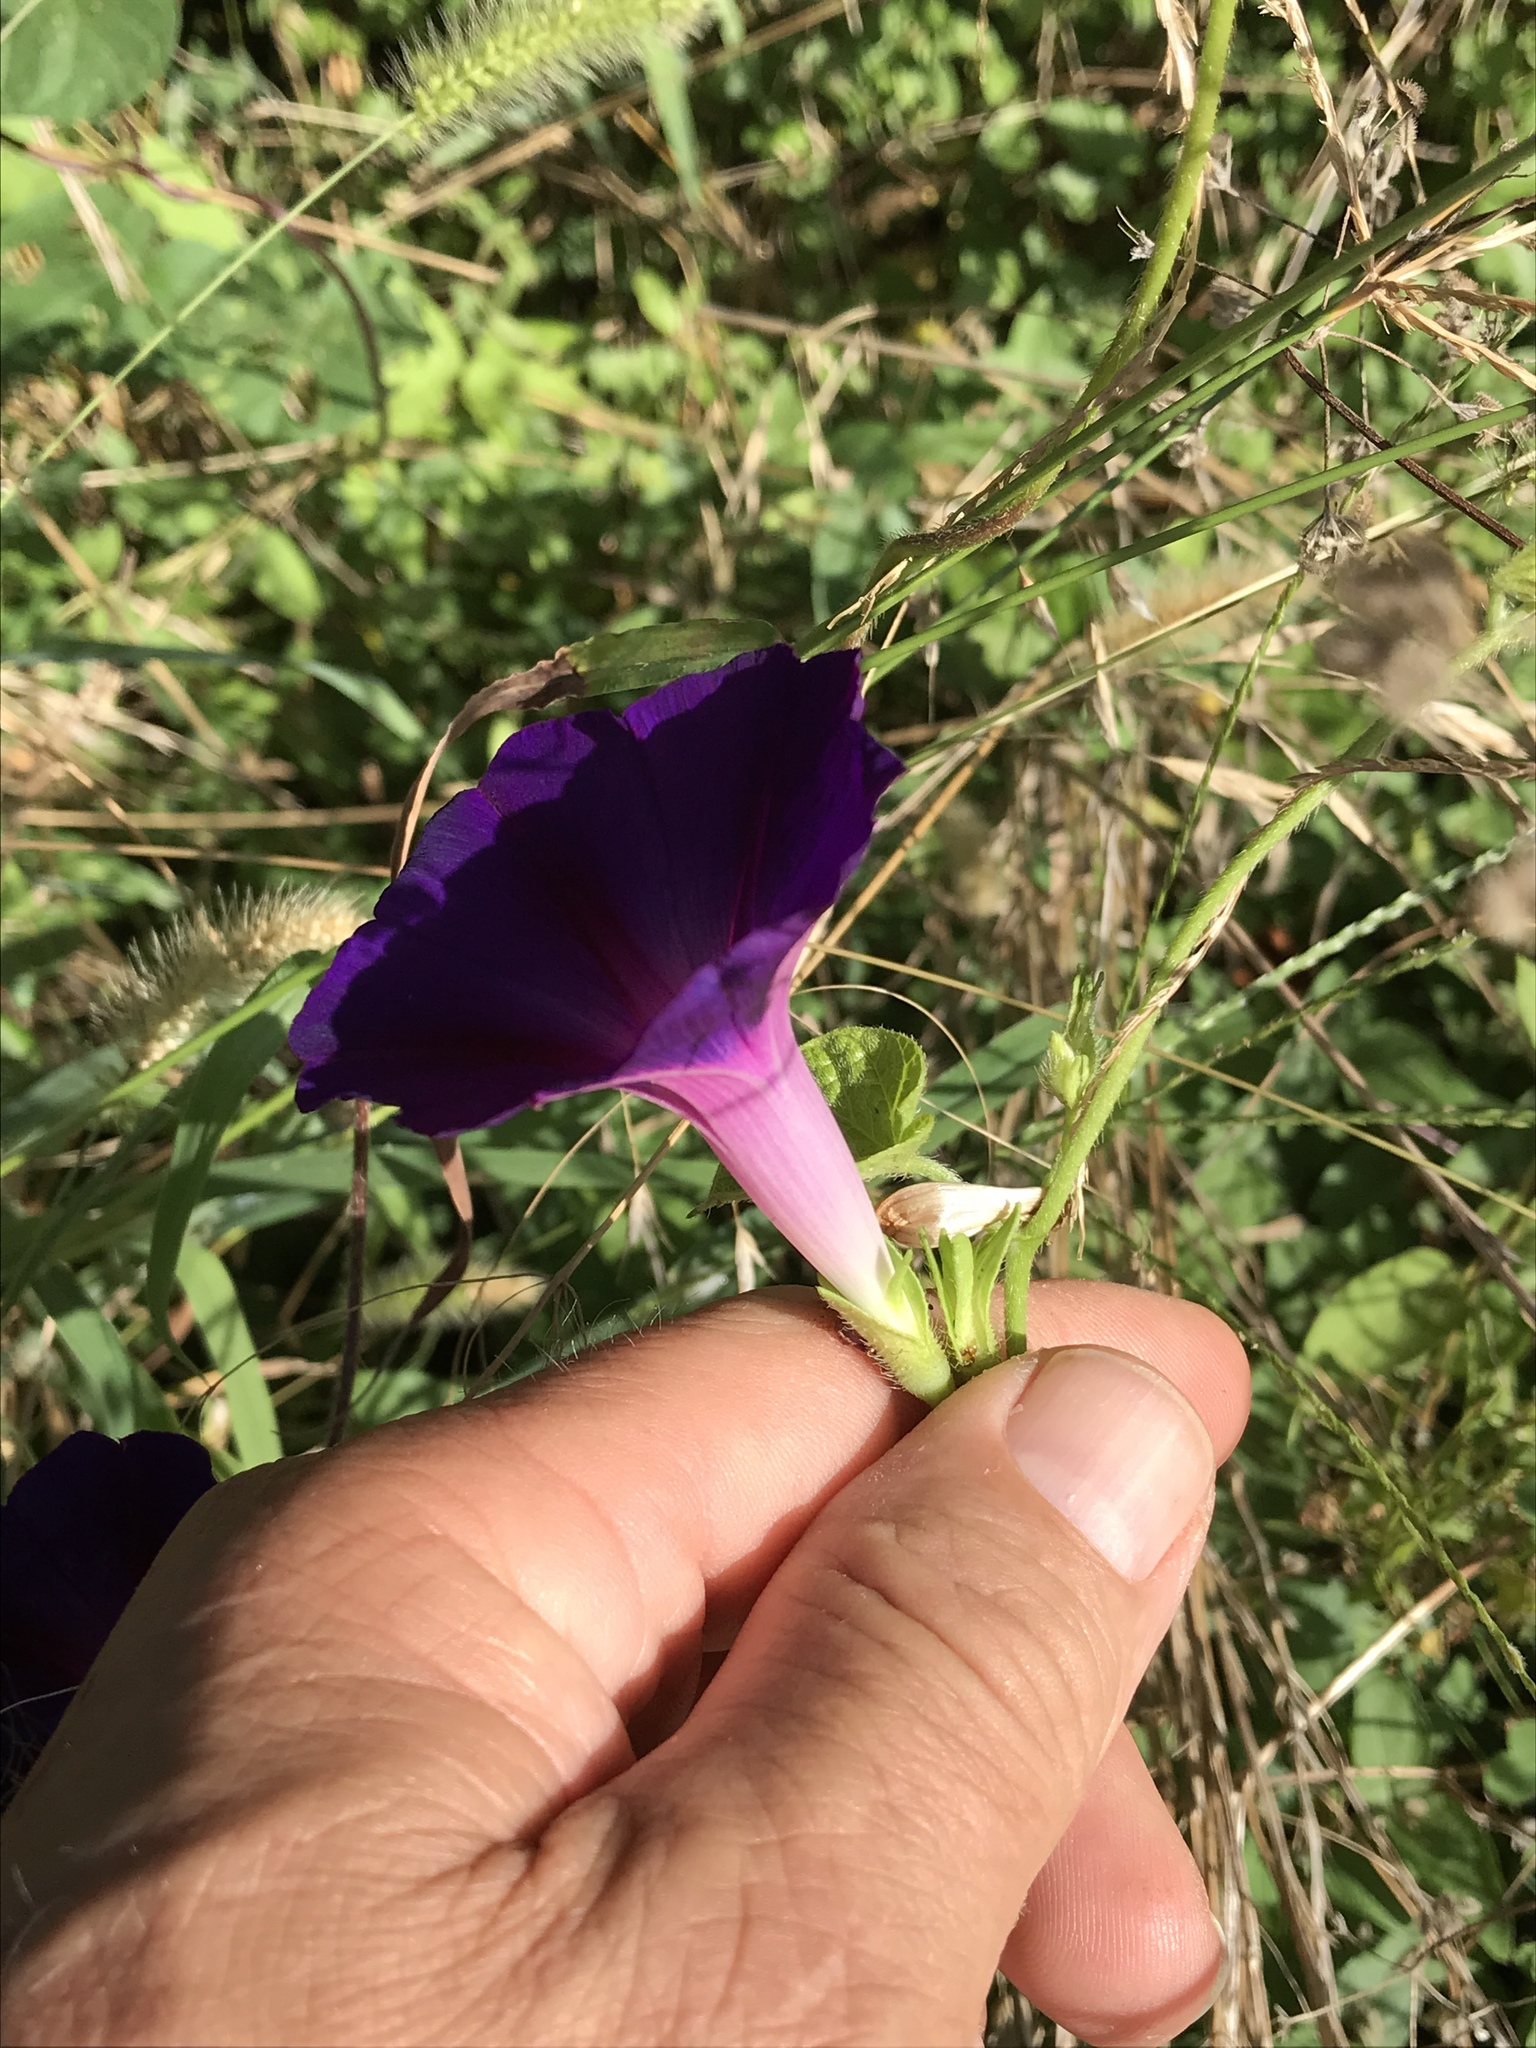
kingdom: Plantae
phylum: Tracheophyta
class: Magnoliopsida
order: Solanales
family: Convolvulaceae
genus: Ipomoea
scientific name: Ipomoea purpurea
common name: Common morning-glory
